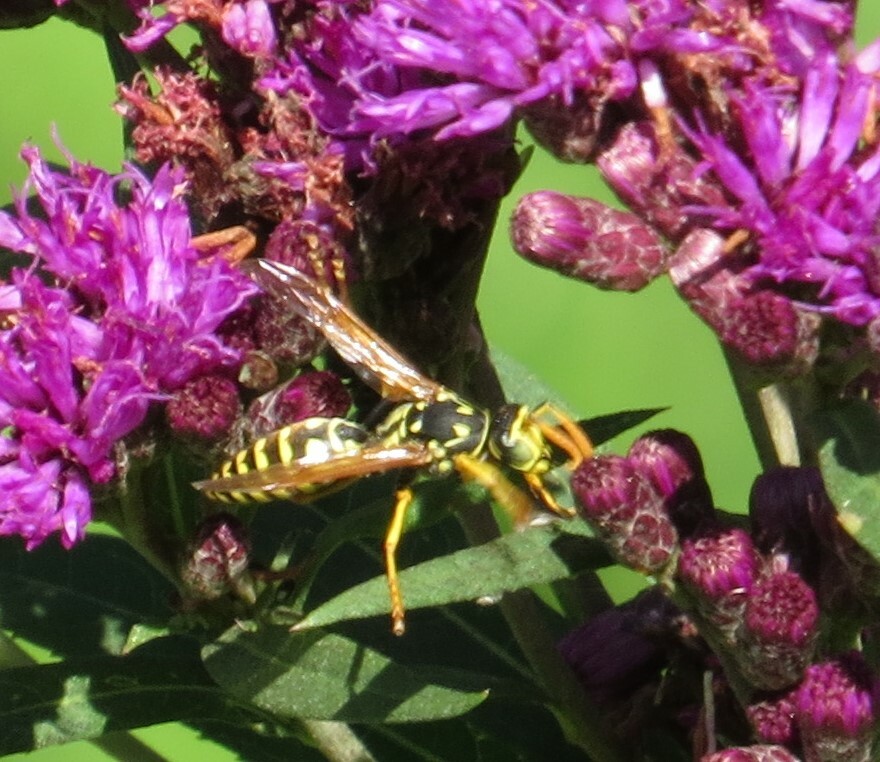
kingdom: Animalia
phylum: Arthropoda
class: Insecta
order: Hymenoptera
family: Eumenidae
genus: Polistes
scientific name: Polistes dominula
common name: Paper wasp
